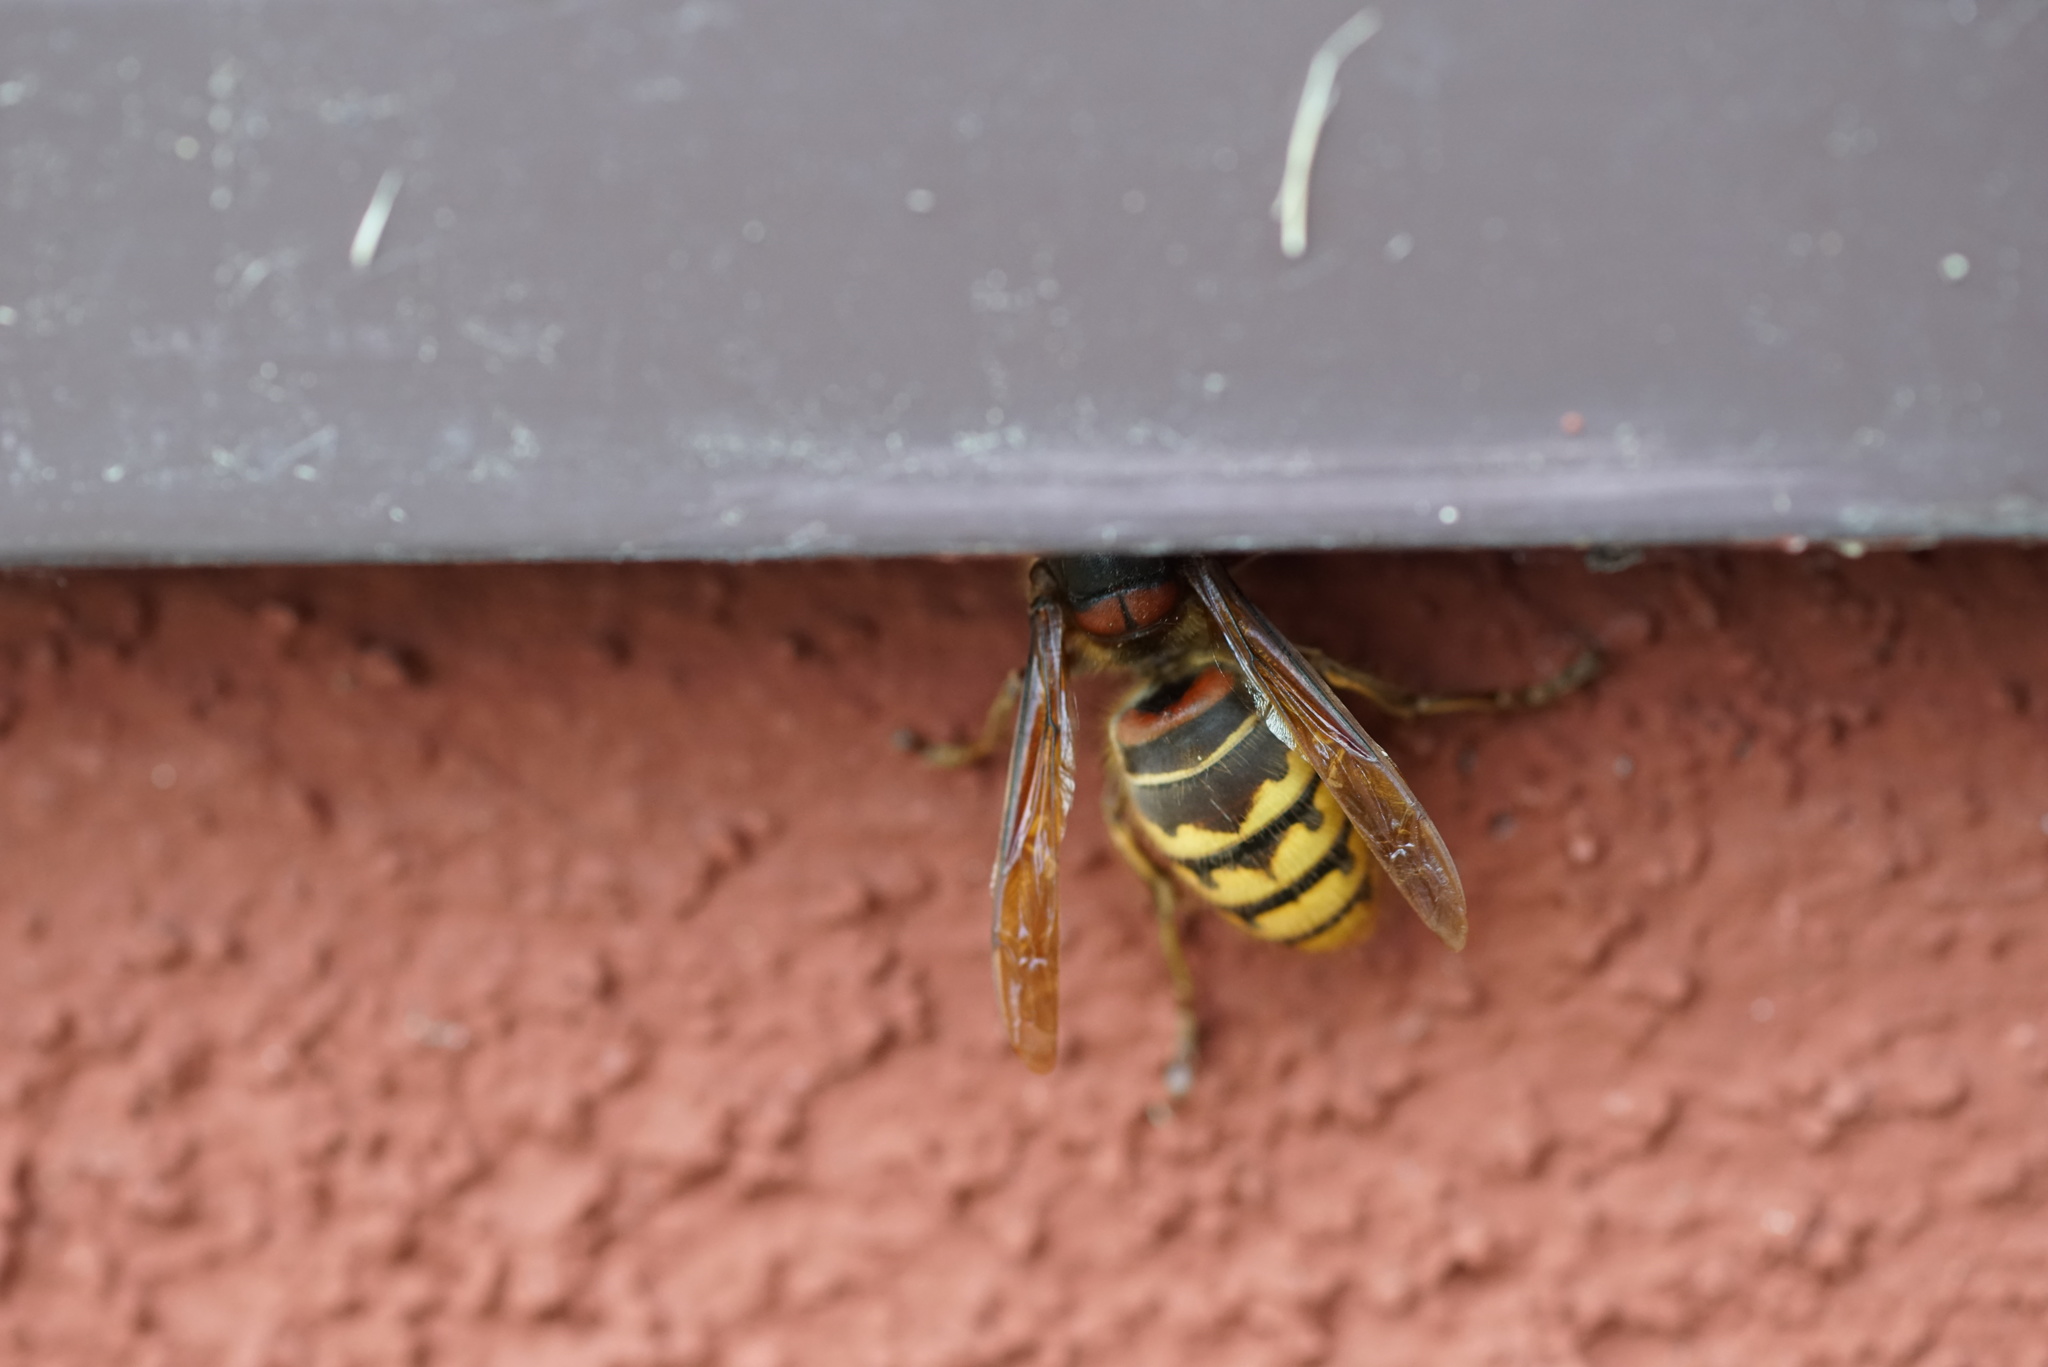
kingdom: Animalia
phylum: Arthropoda
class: Insecta
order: Hymenoptera
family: Vespidae
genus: Vespa
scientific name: Vespa crabro
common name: Hornet
